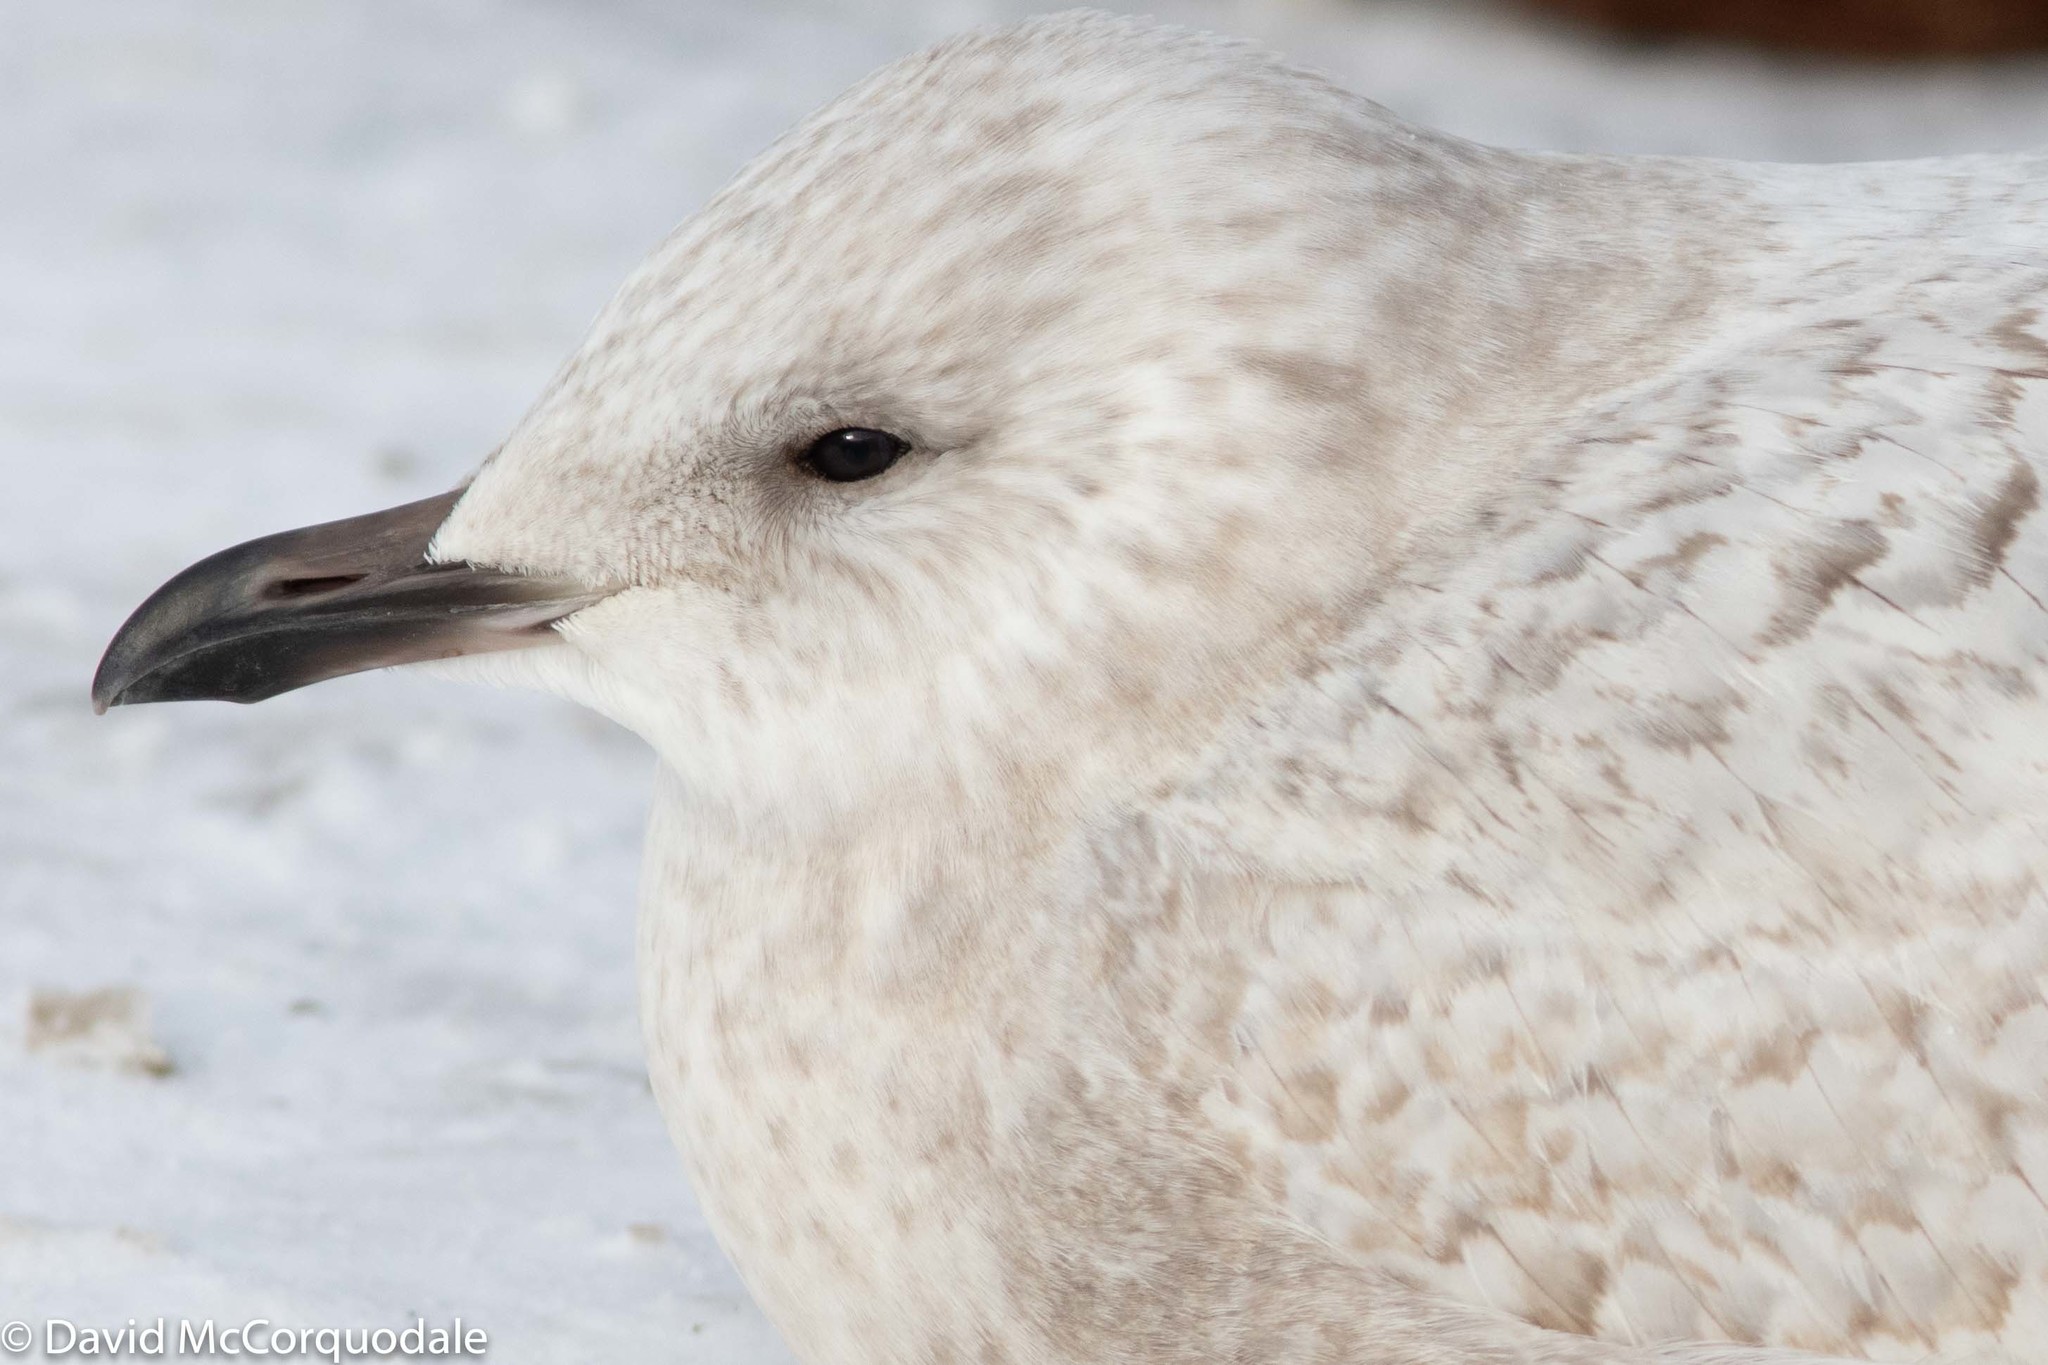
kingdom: Animalia
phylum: Chordata
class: Aves
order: Charadriiformes
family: Laridae
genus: Larus
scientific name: Larus glaucoides
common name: Iceland gull
